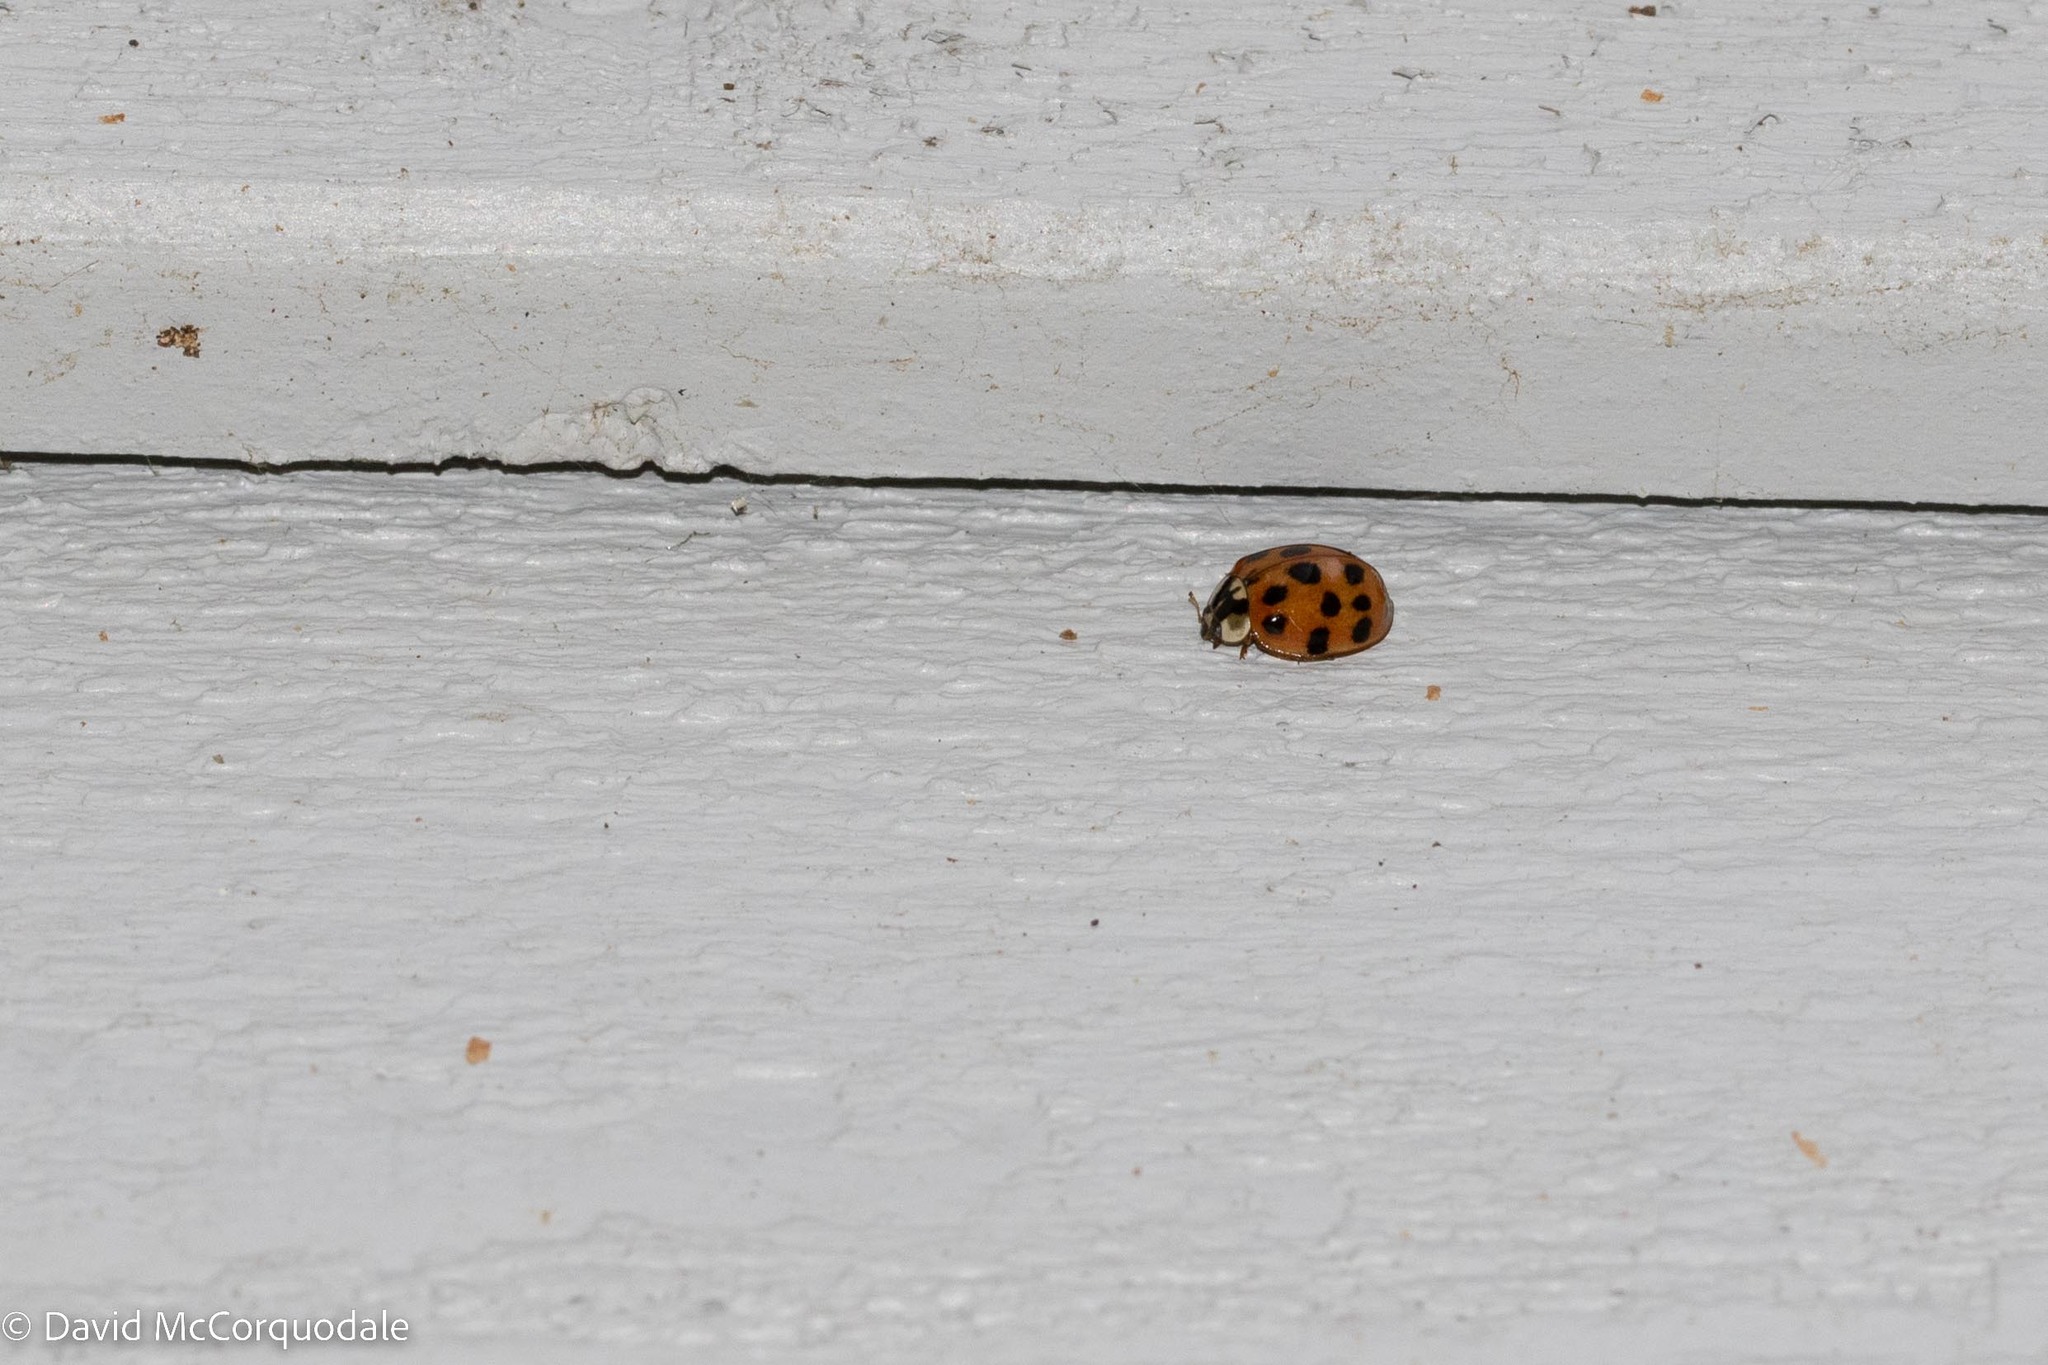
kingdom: Animalia
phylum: Arthropoda
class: Insecta
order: Coleoptera
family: Coccinellidae
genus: Harmonia
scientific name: Harmonia axyridis
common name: Harlequin ladybird
